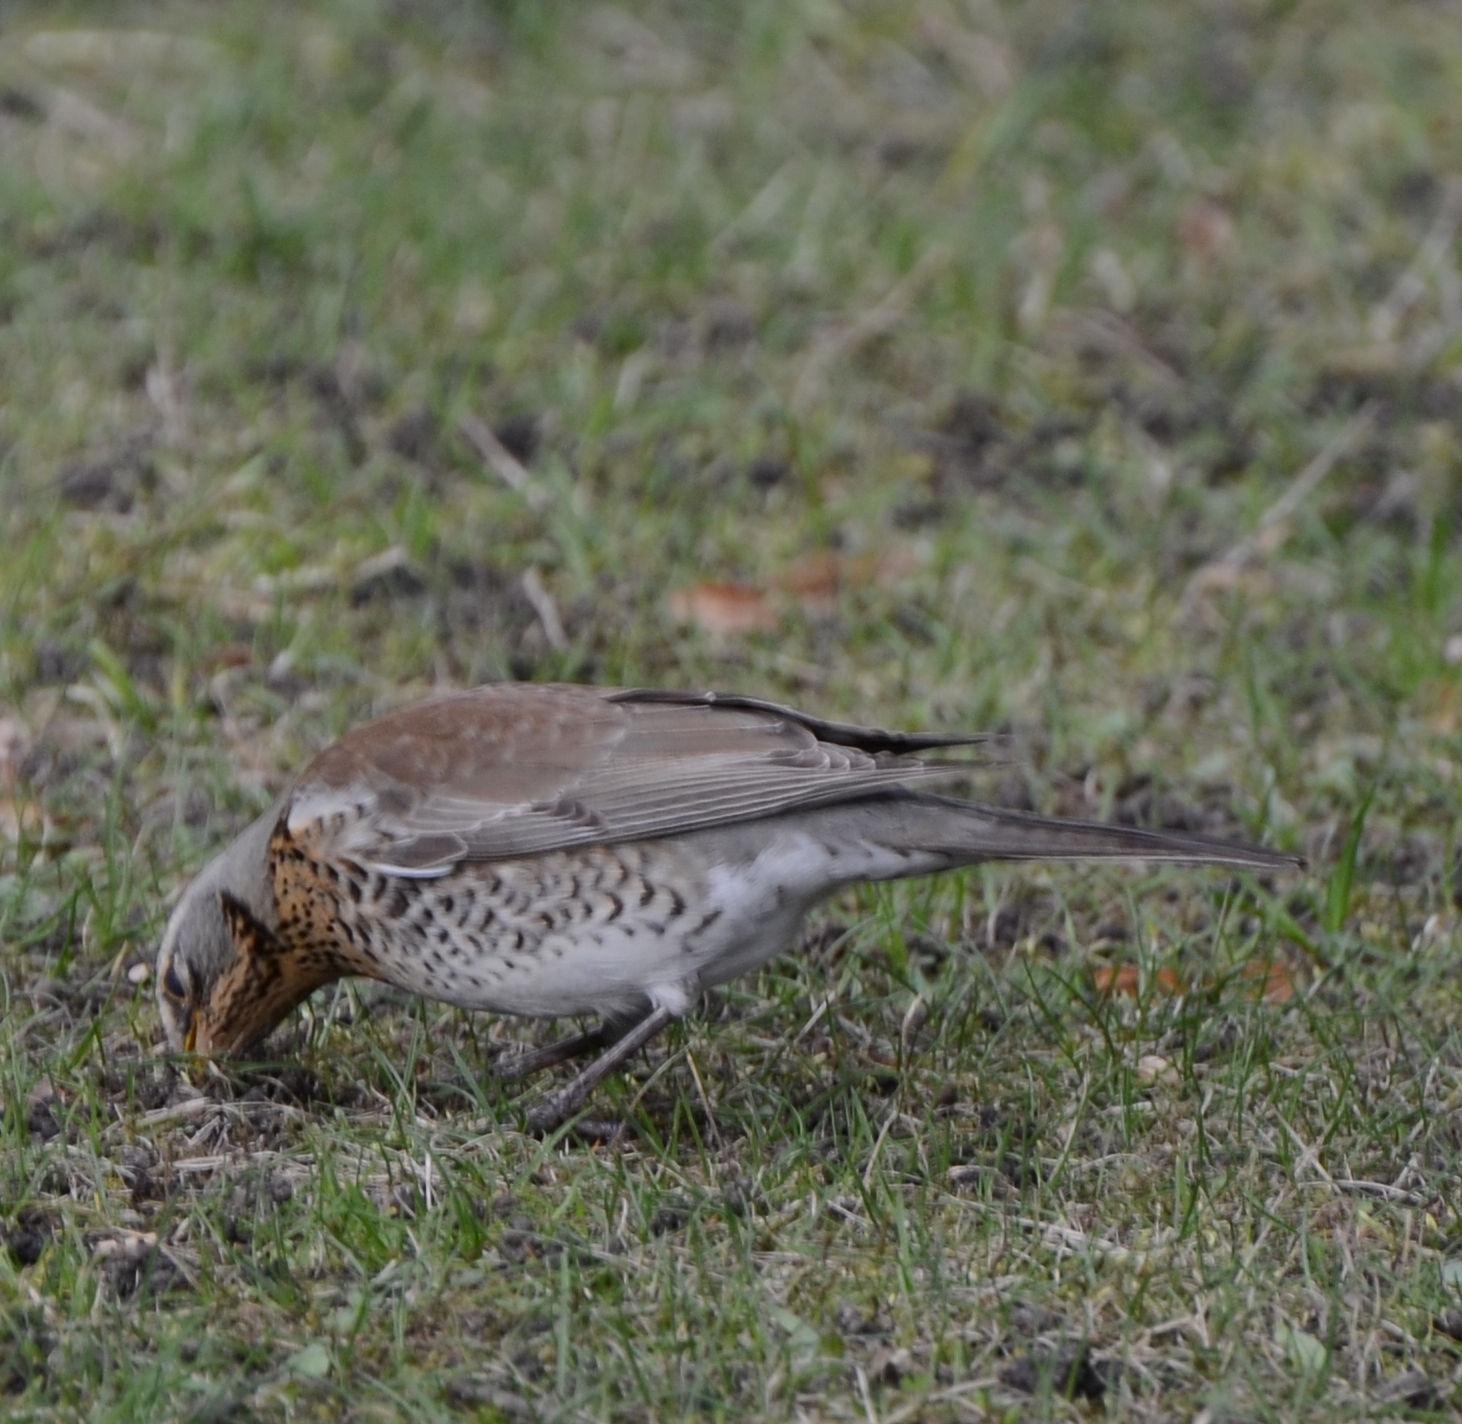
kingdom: Animalia
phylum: Chordata
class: Aves
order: Passeriformes
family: Turdidae
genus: Turdus
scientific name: Turdus pilaris
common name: Fieldfare
